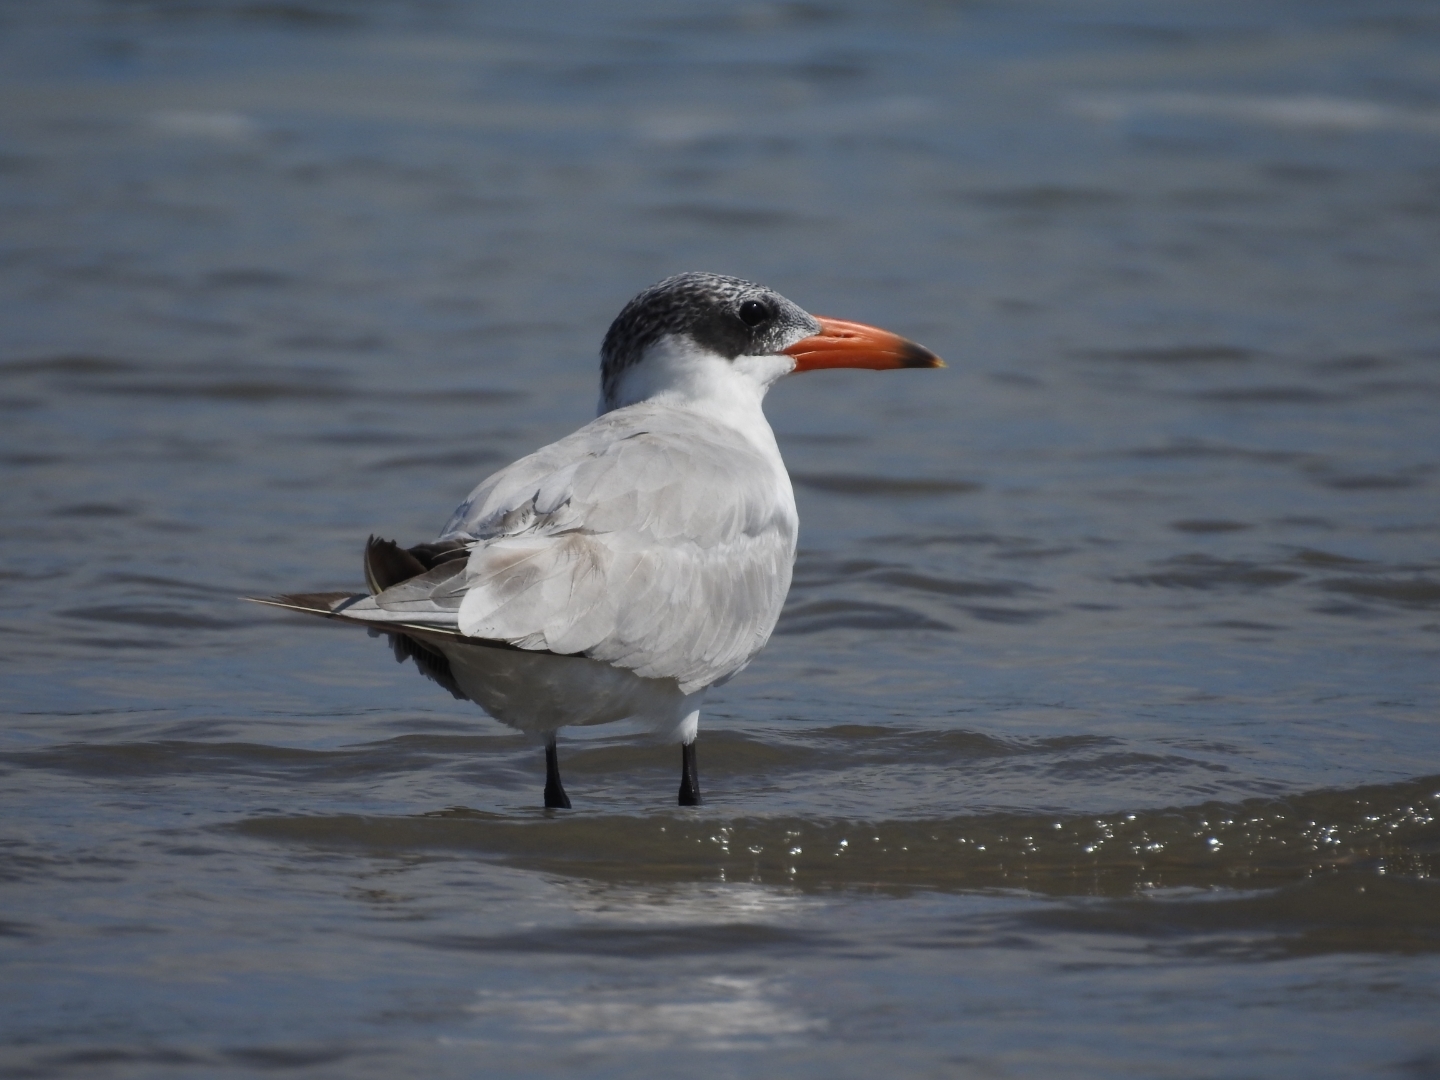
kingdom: Animalia
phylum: Chordata
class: Aves
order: Charadriiformes
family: Laridae
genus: Hydroprogne
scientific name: Hydroprogne caspia
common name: Caspian tern
